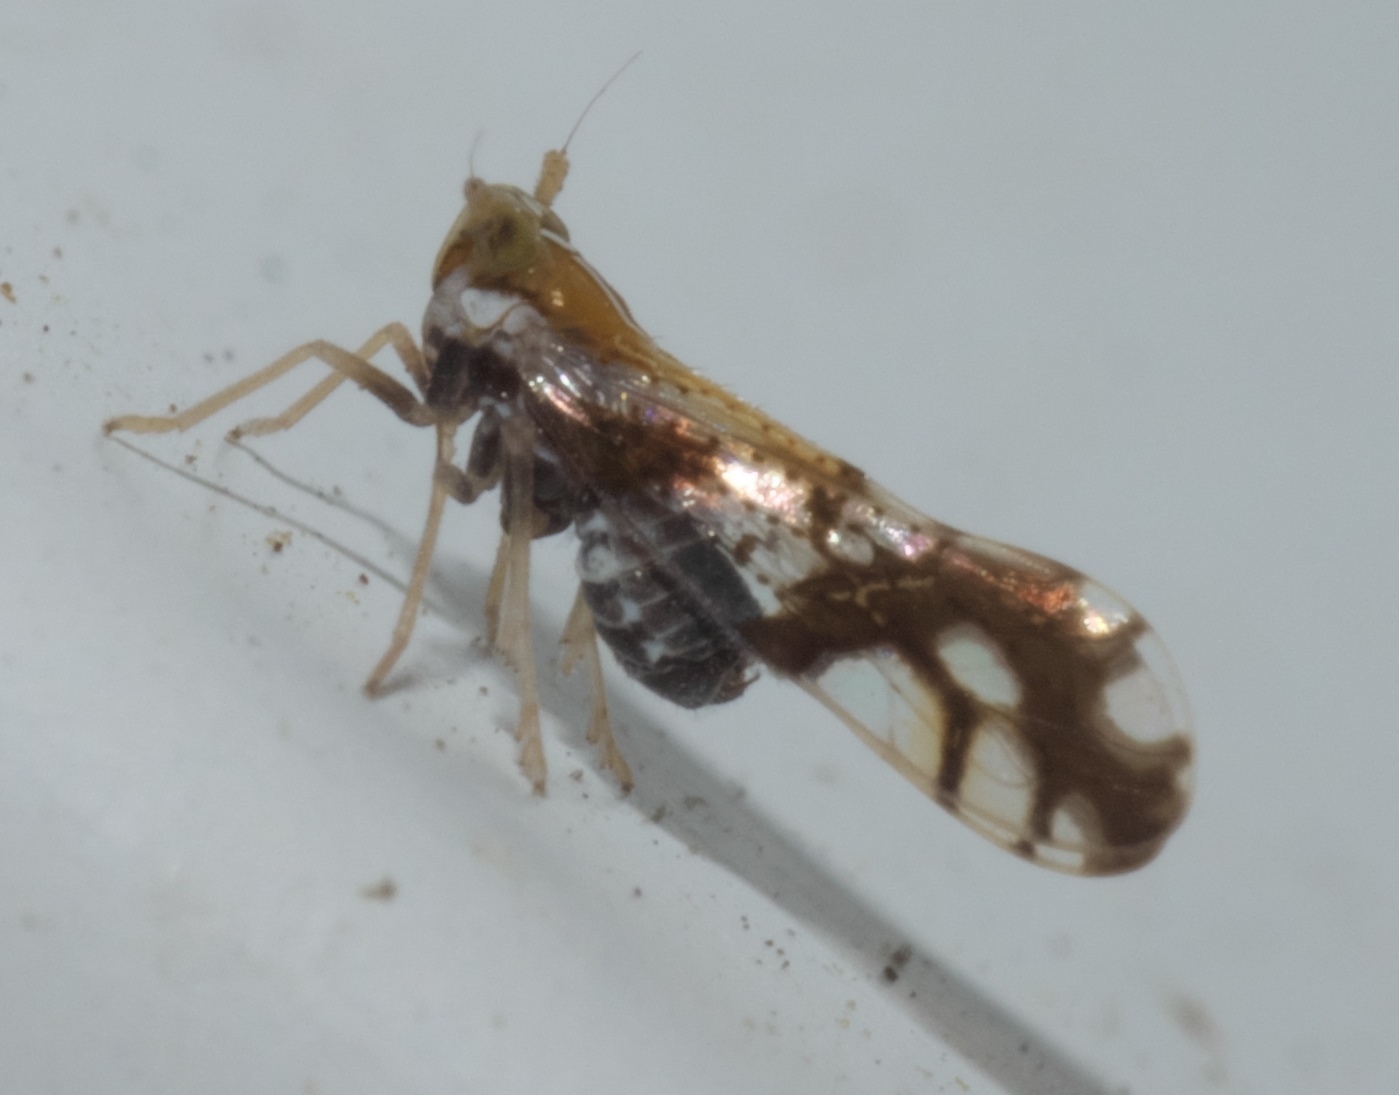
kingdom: Animalia
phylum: Arthropoda
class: Insecta
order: Hemiptera
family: Delphacidae
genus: Liburniella
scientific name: Liburniella ornata
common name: Ornate planthopper
